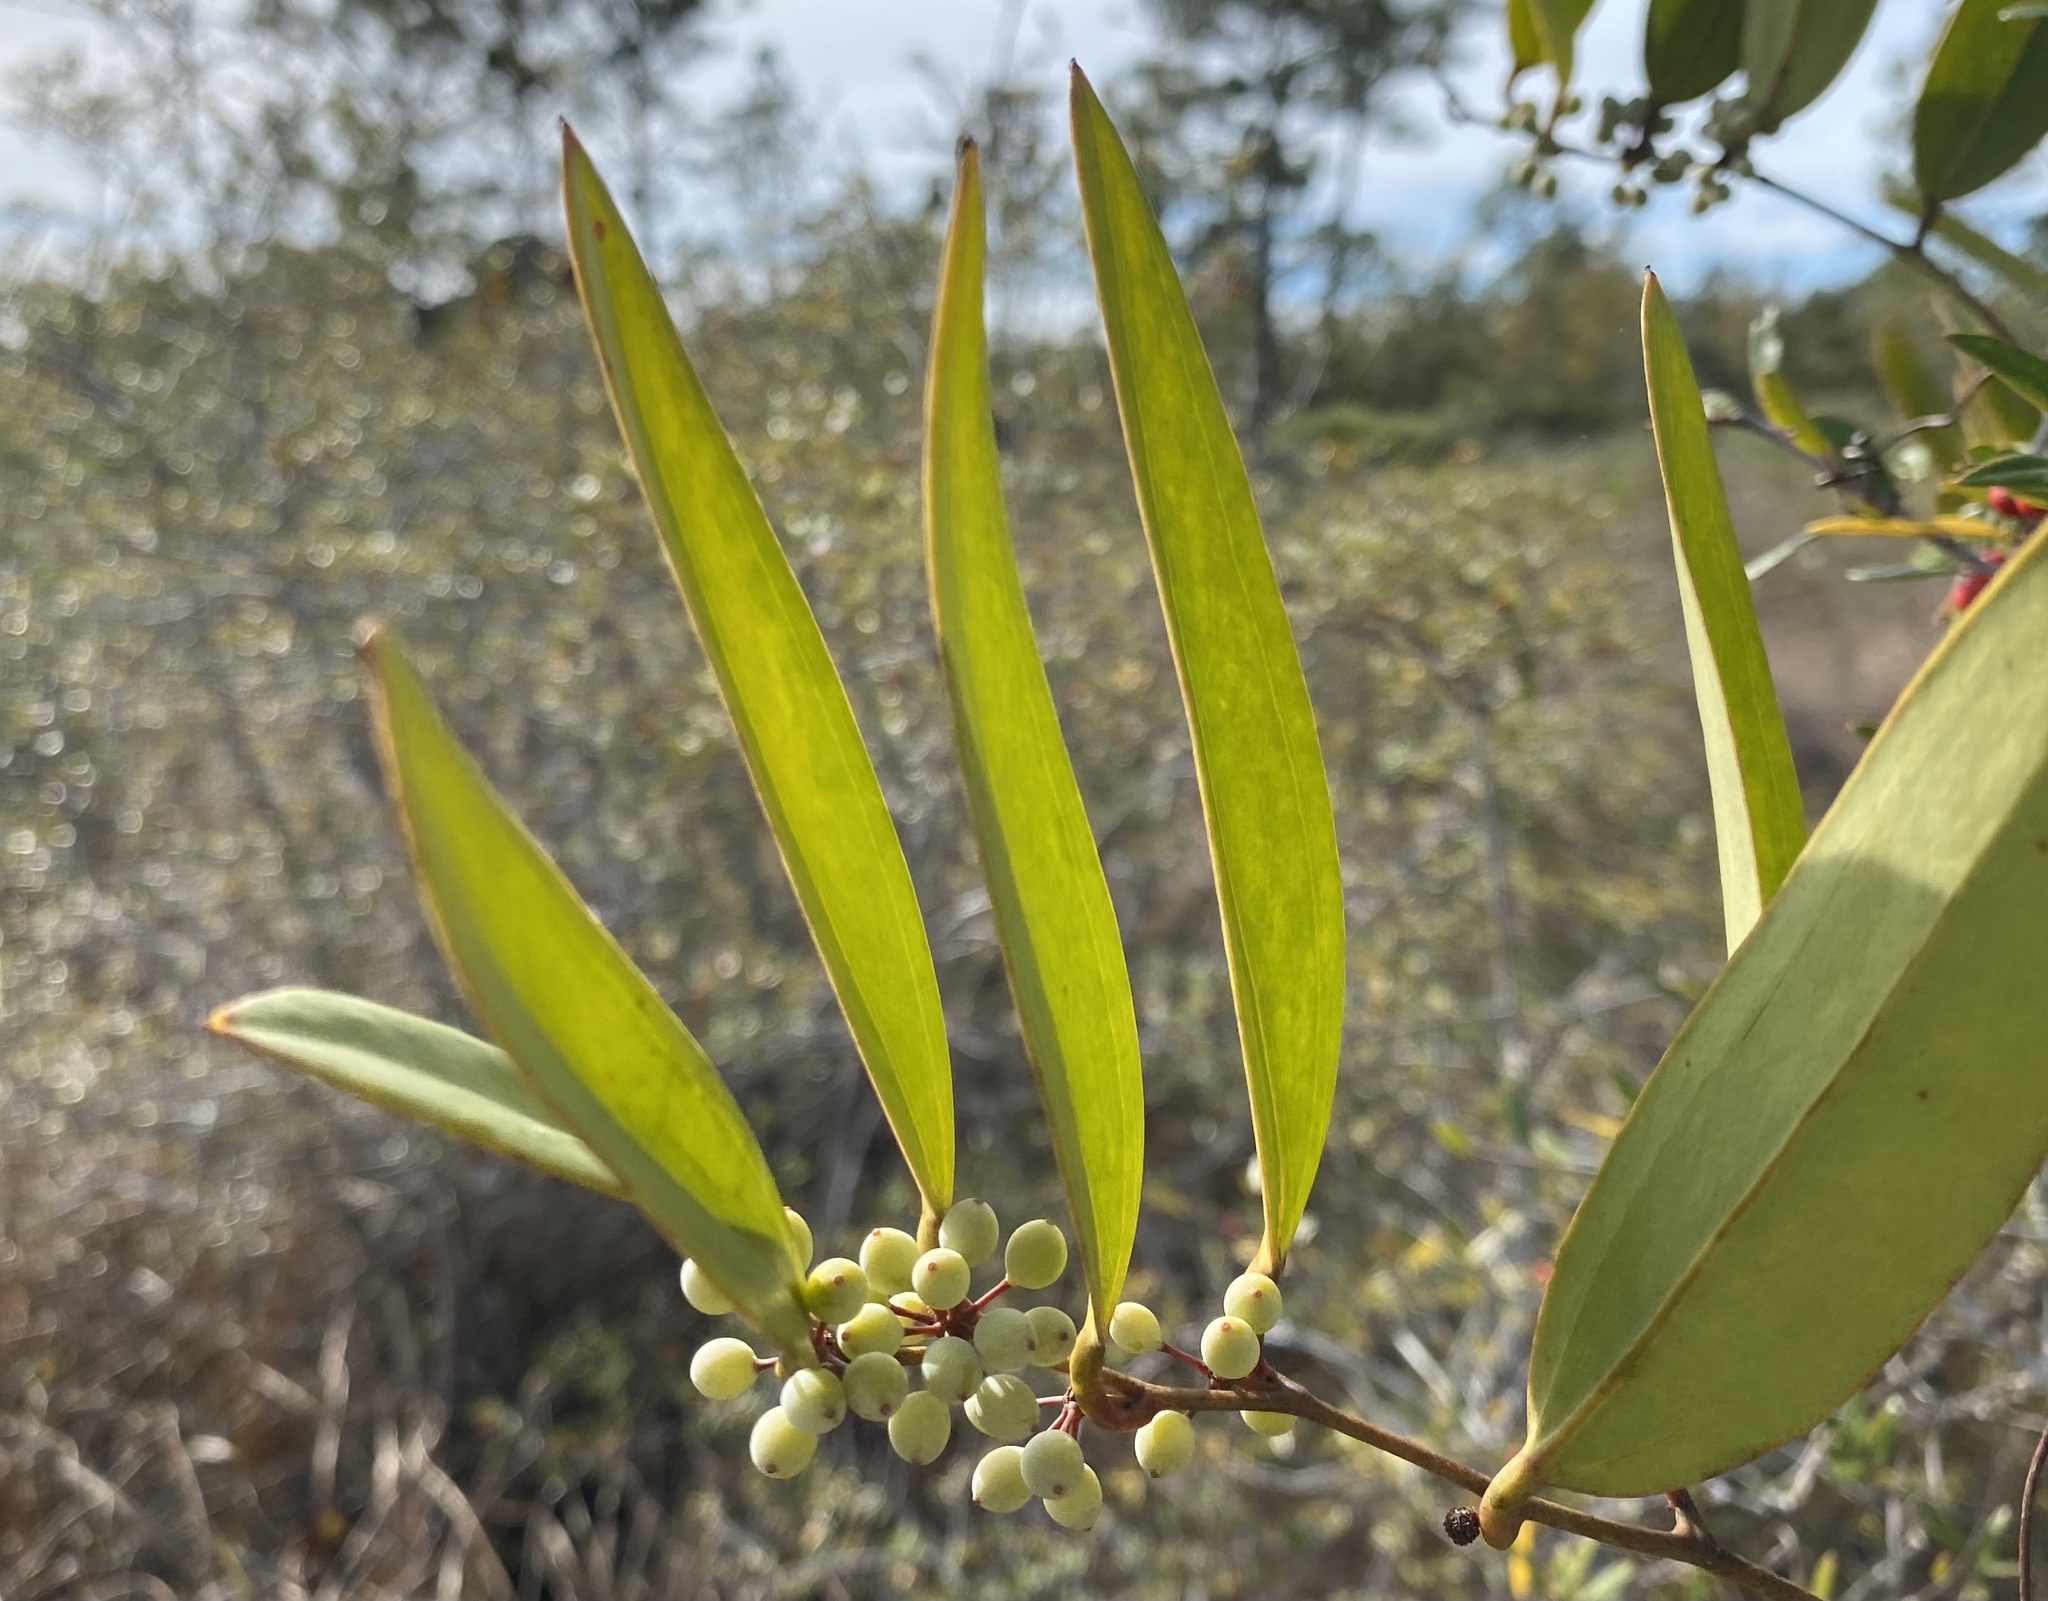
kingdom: Plantae
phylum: Tracheophyta
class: Liliopsida
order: Liliales
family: Smilacaceae
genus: Smilax
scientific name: Smilax laurifolia
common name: Bamboovine
